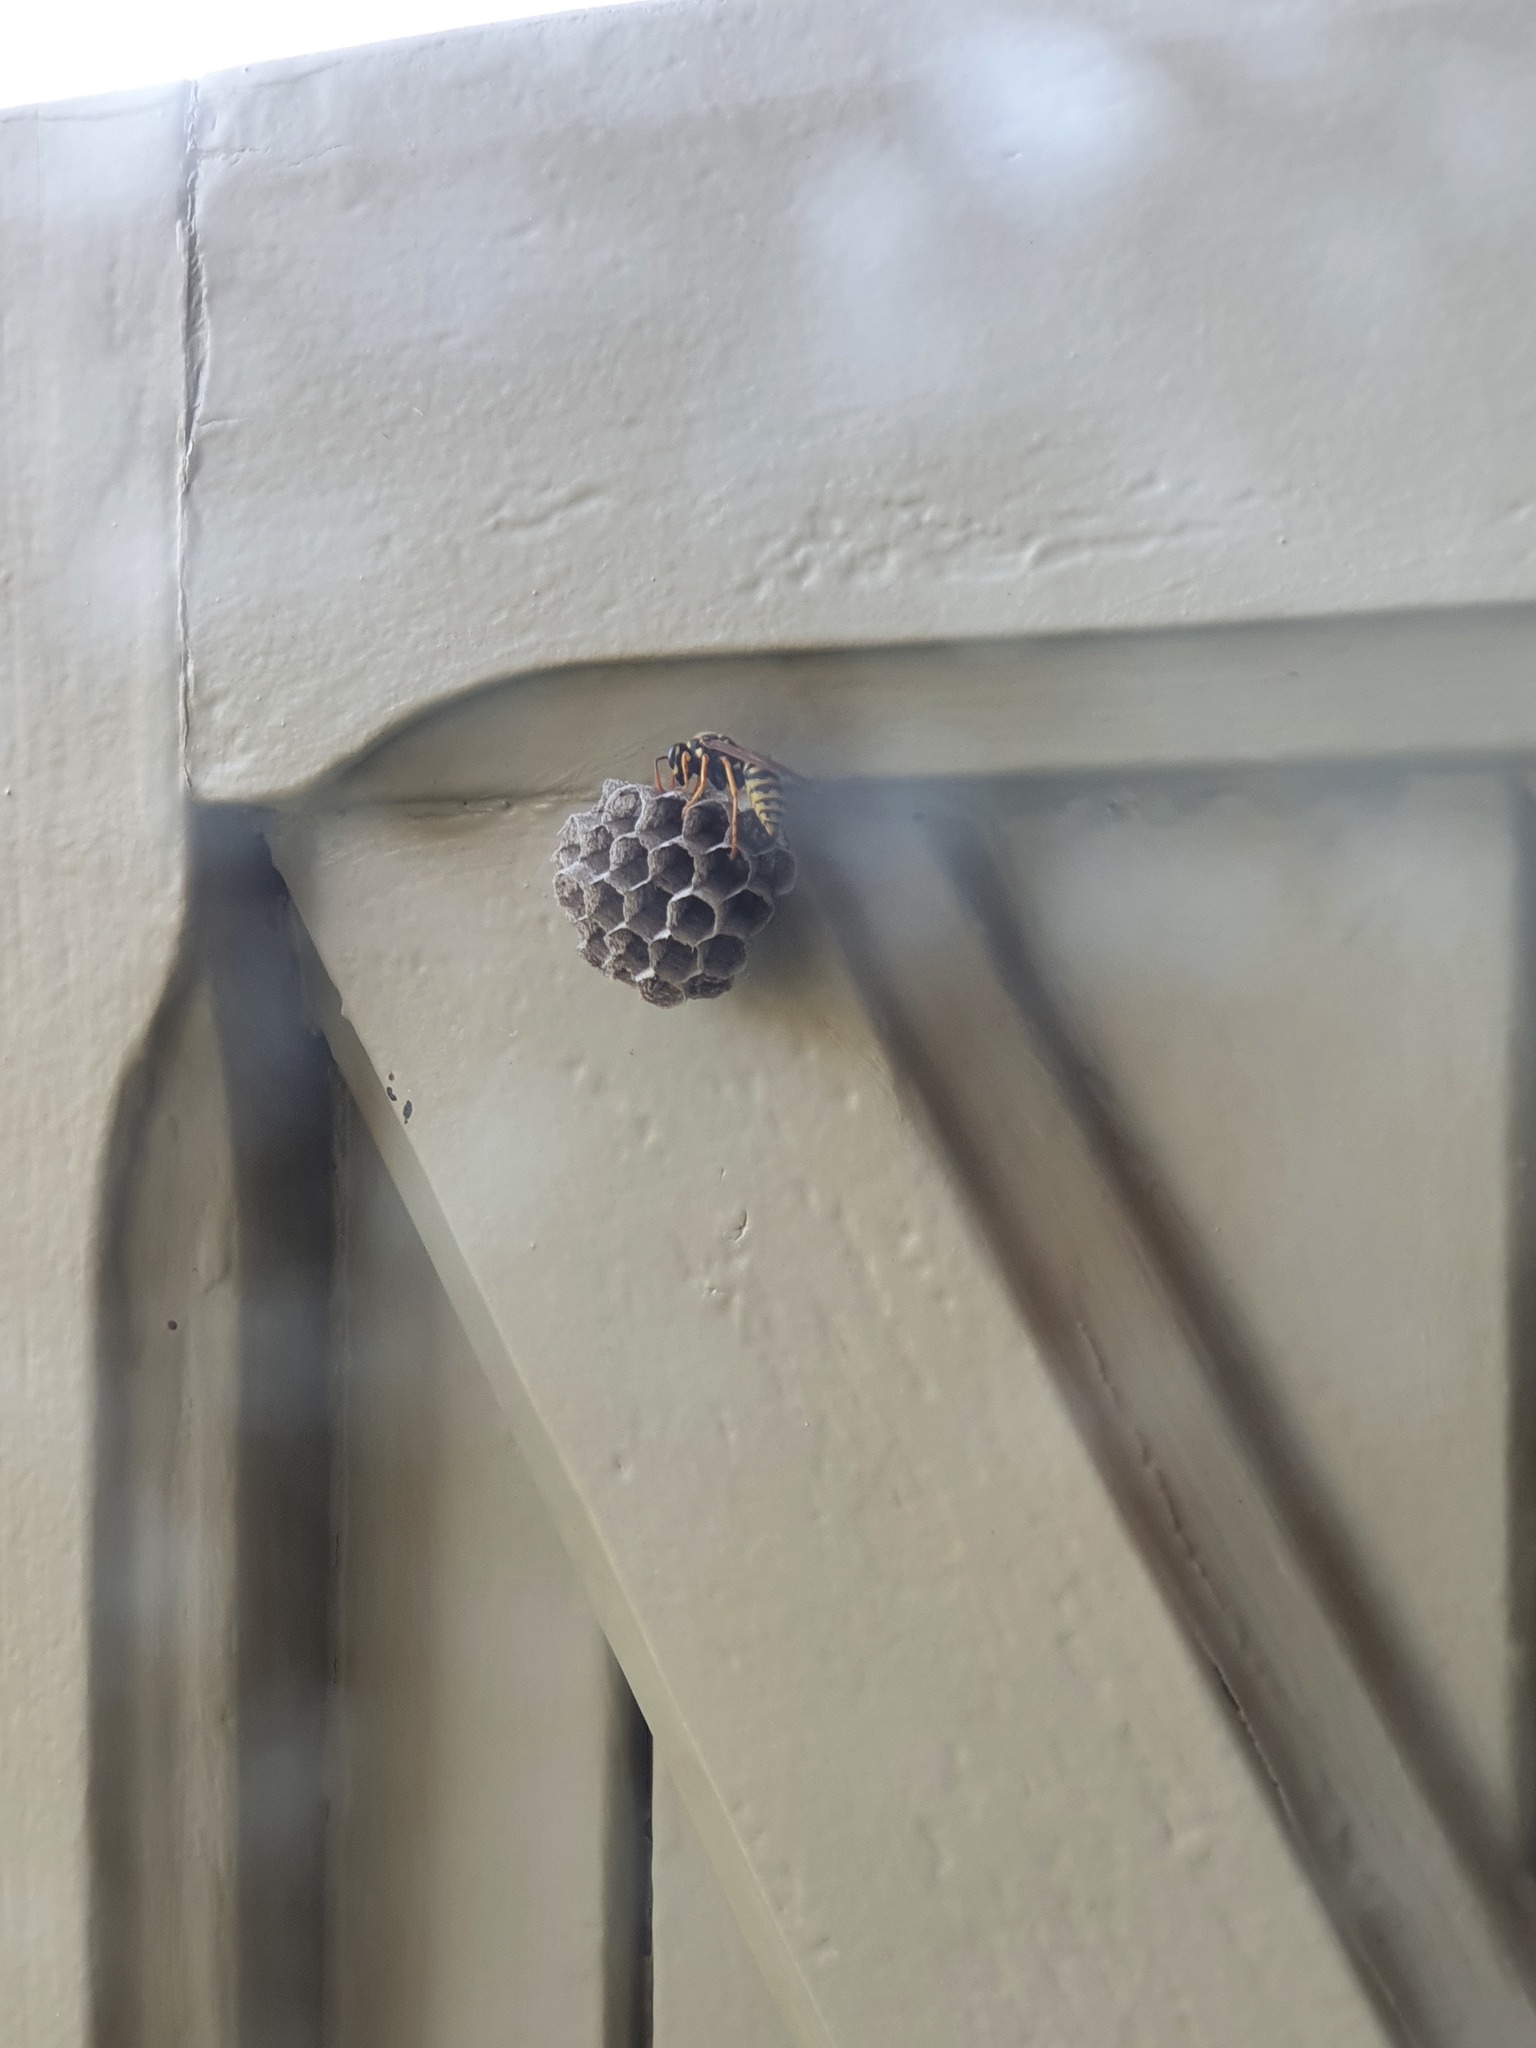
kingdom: Animalia
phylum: Arthropoda
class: Insecta
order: Hymenoptera
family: Eumenidae
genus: Polistes
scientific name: Polistes dominula
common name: Paper wasp
